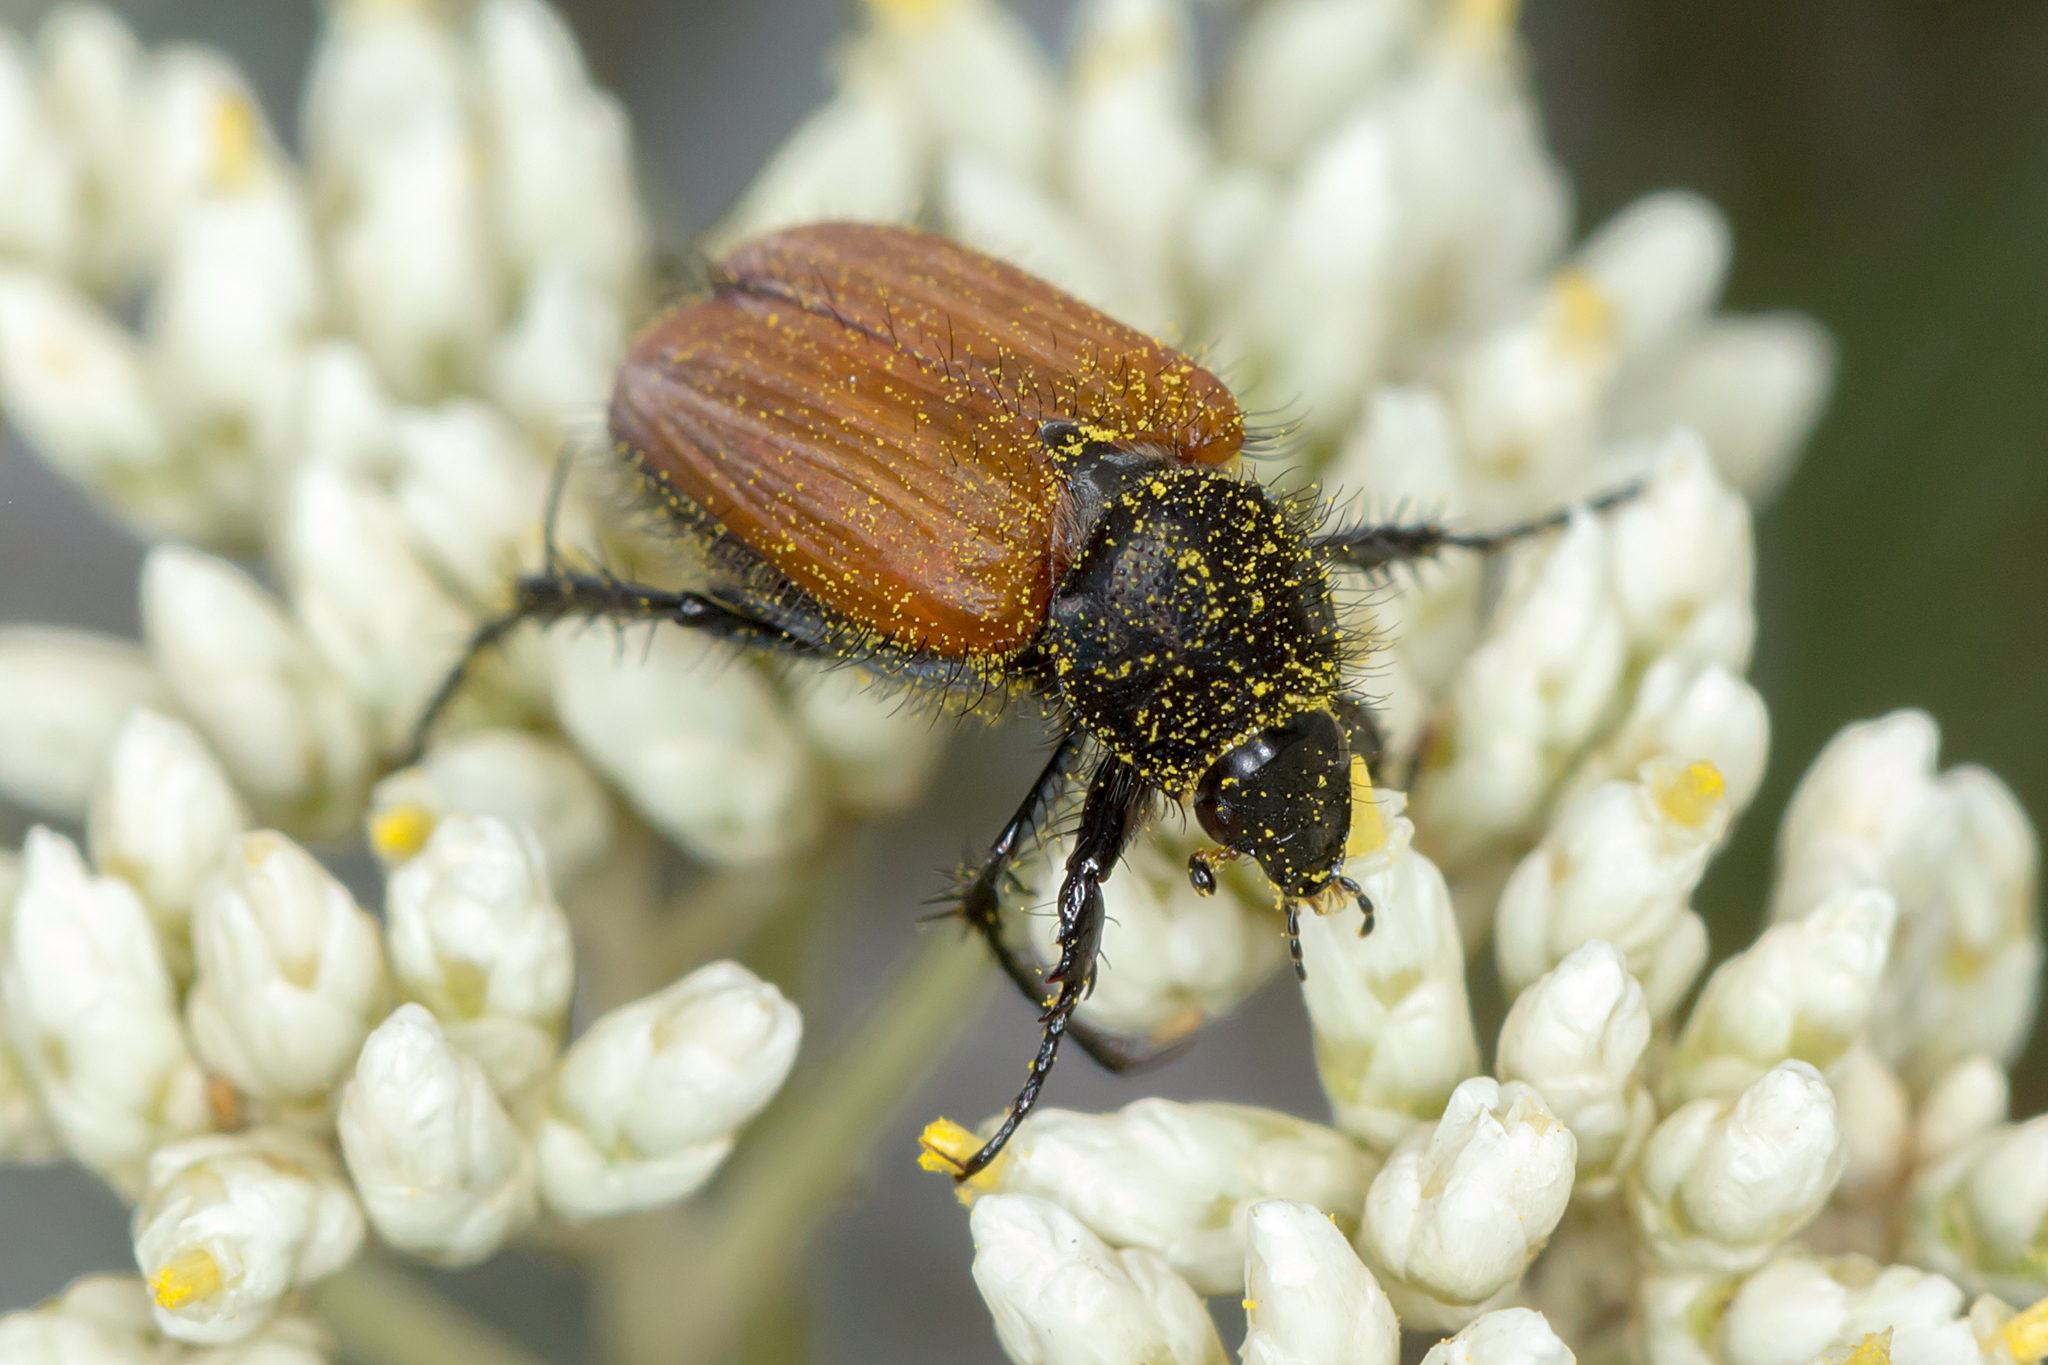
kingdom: Animalia
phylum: Arthropoda
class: Insecta
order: Coleoptera
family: Scarabaeidae
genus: Phyllotocus
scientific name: Phyllotocus rufipennis
